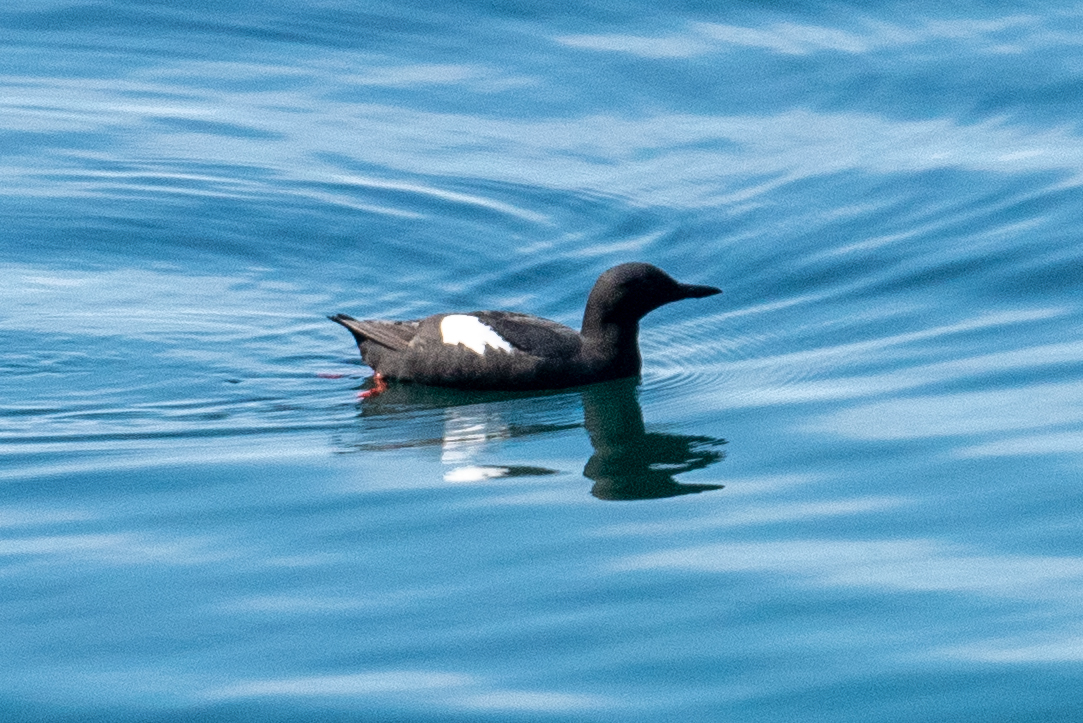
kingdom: Animalia
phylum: Chordata
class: Aves
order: Charadriiformes
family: Alcidae
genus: Cepphus
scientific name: Cepphus columba
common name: Pigeon guillemot
